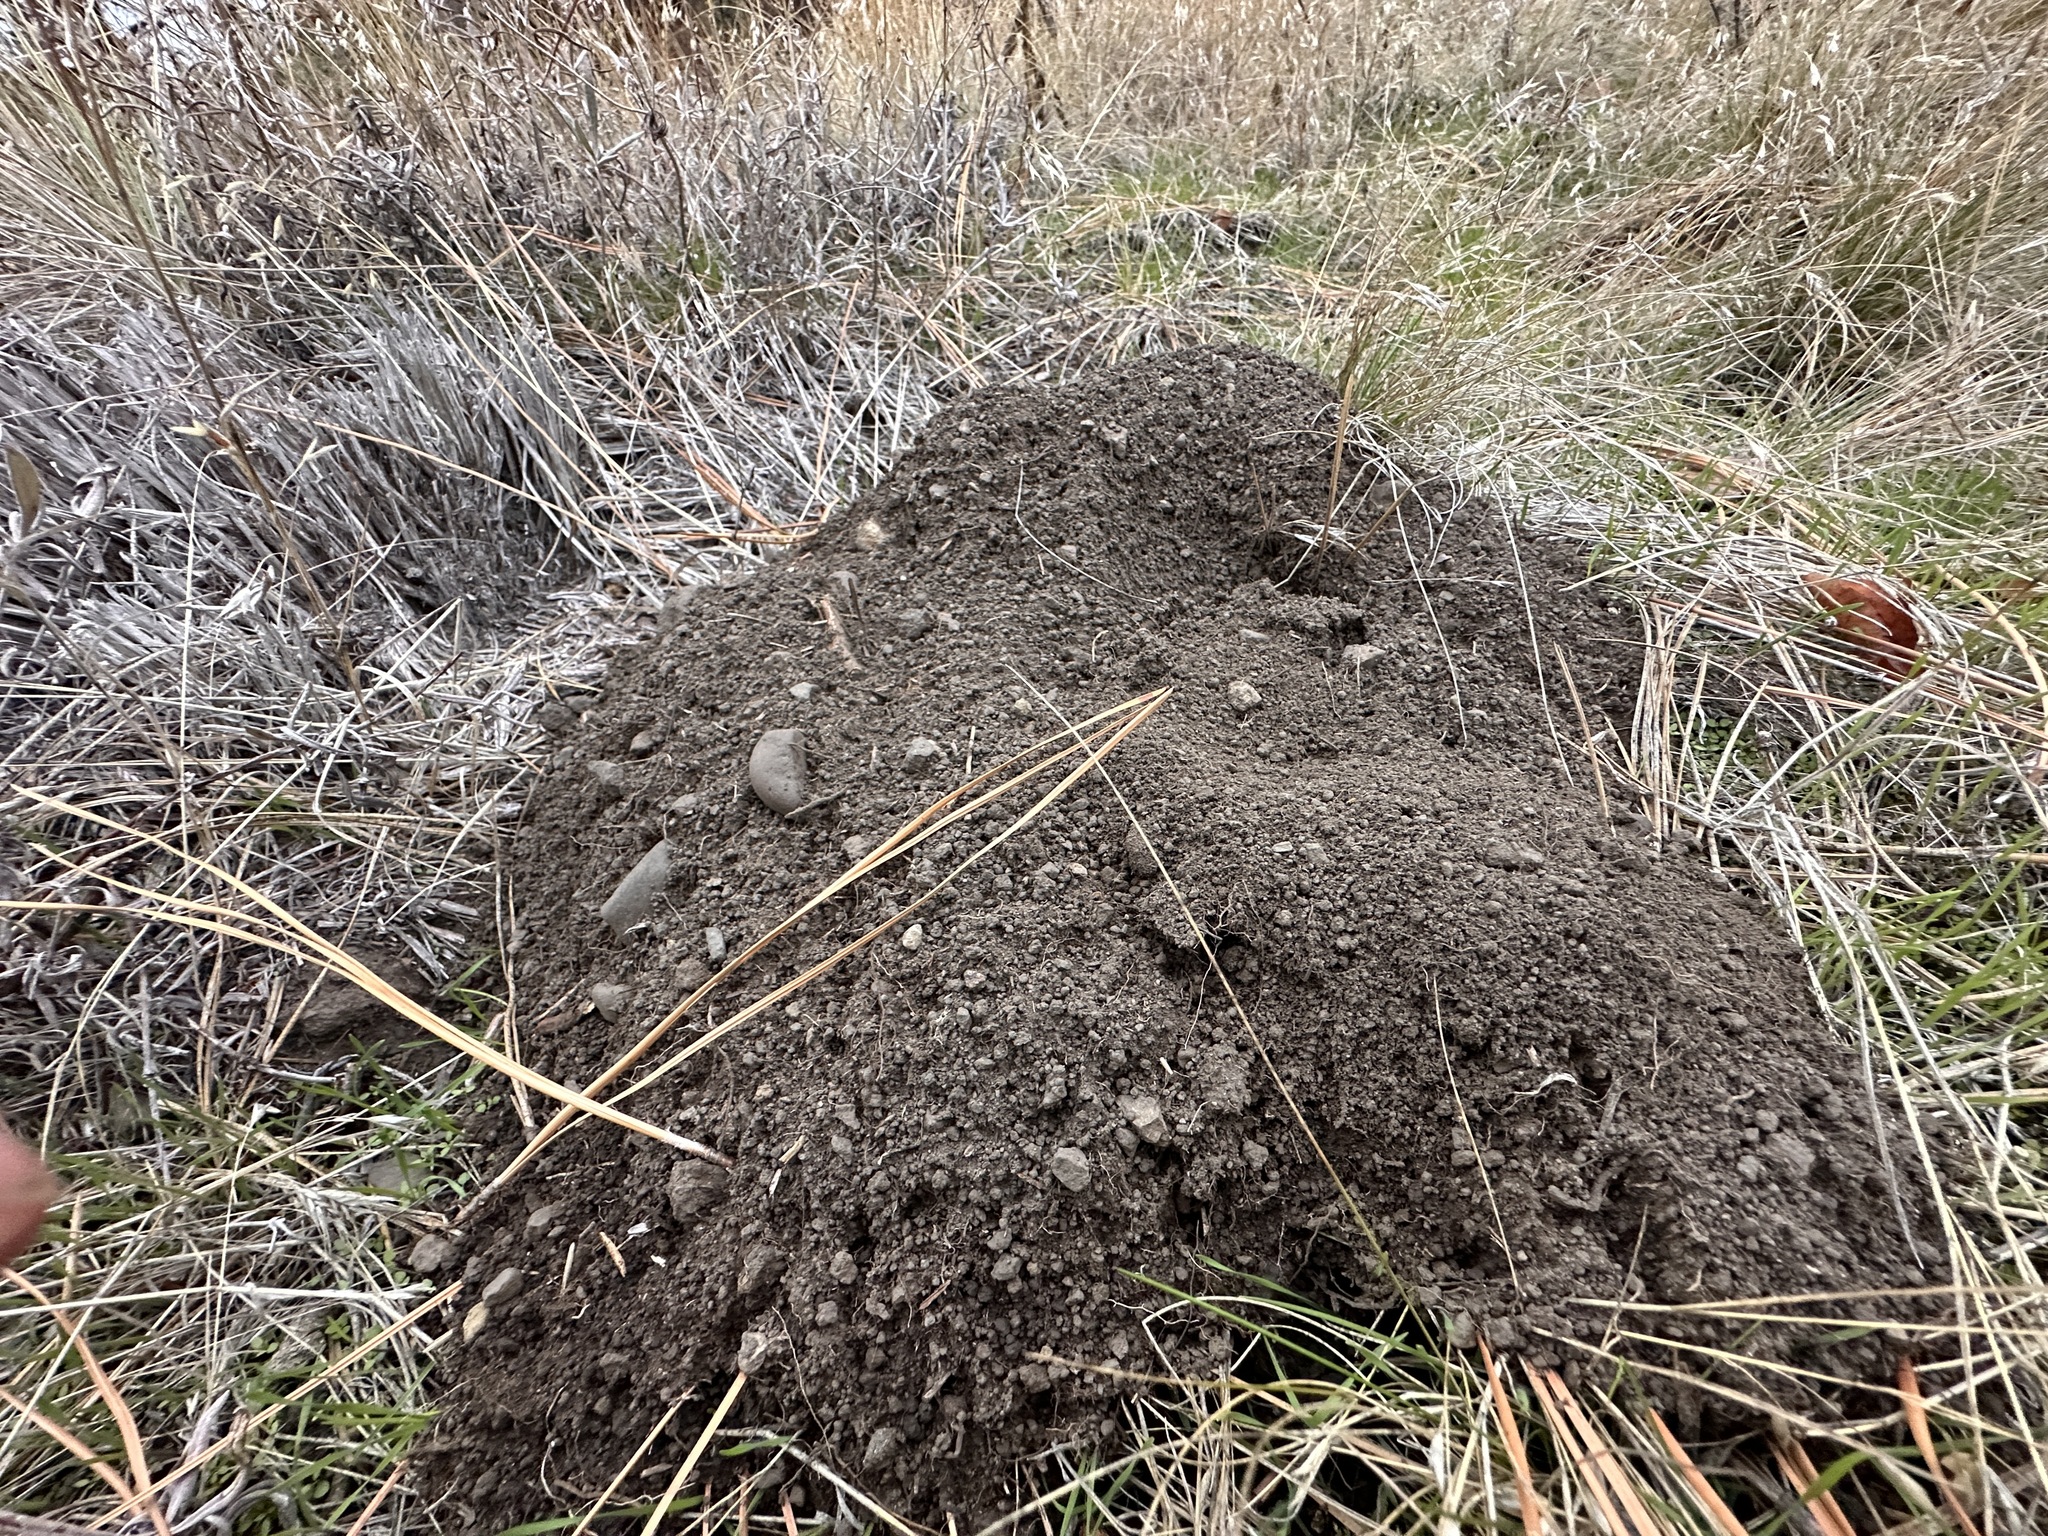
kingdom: Animalia
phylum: Chordata
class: Mammalia
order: Rodentia
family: Geomyidae
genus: Thomomys
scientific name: Thomomys talpoides
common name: Northern pocket gopher
